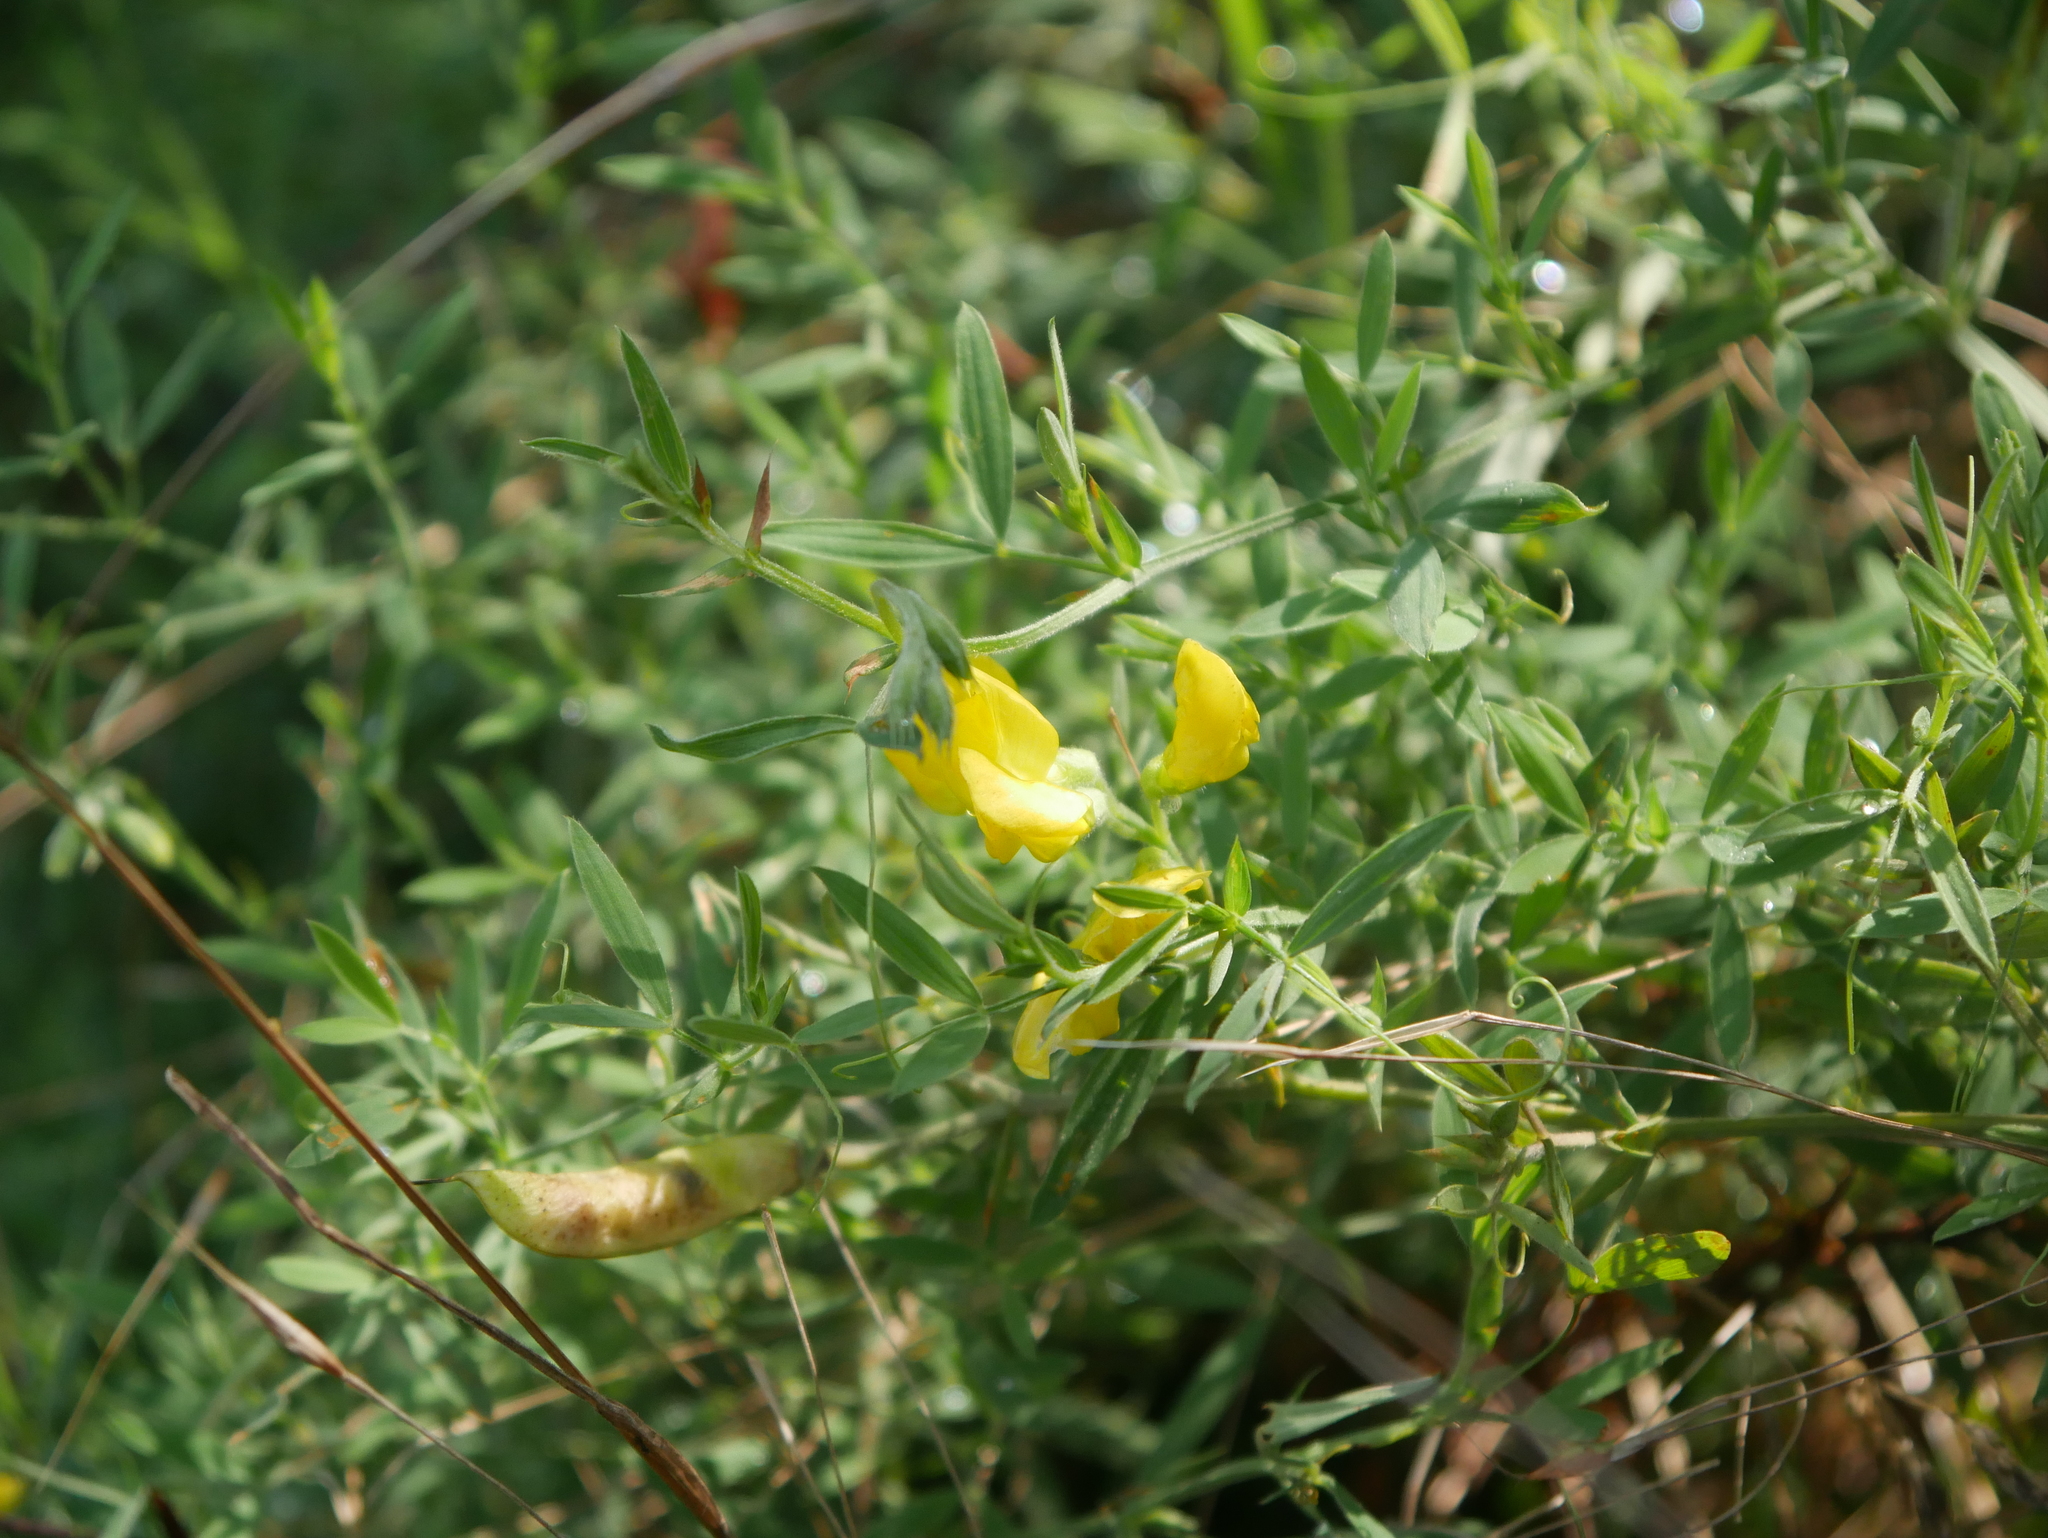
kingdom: Plantae
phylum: Tracheophyta
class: Magnoliopsida
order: Fabales
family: Fabaceae
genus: Lathyrus
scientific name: Lathyrus pratensis
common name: Meadow vetchling
